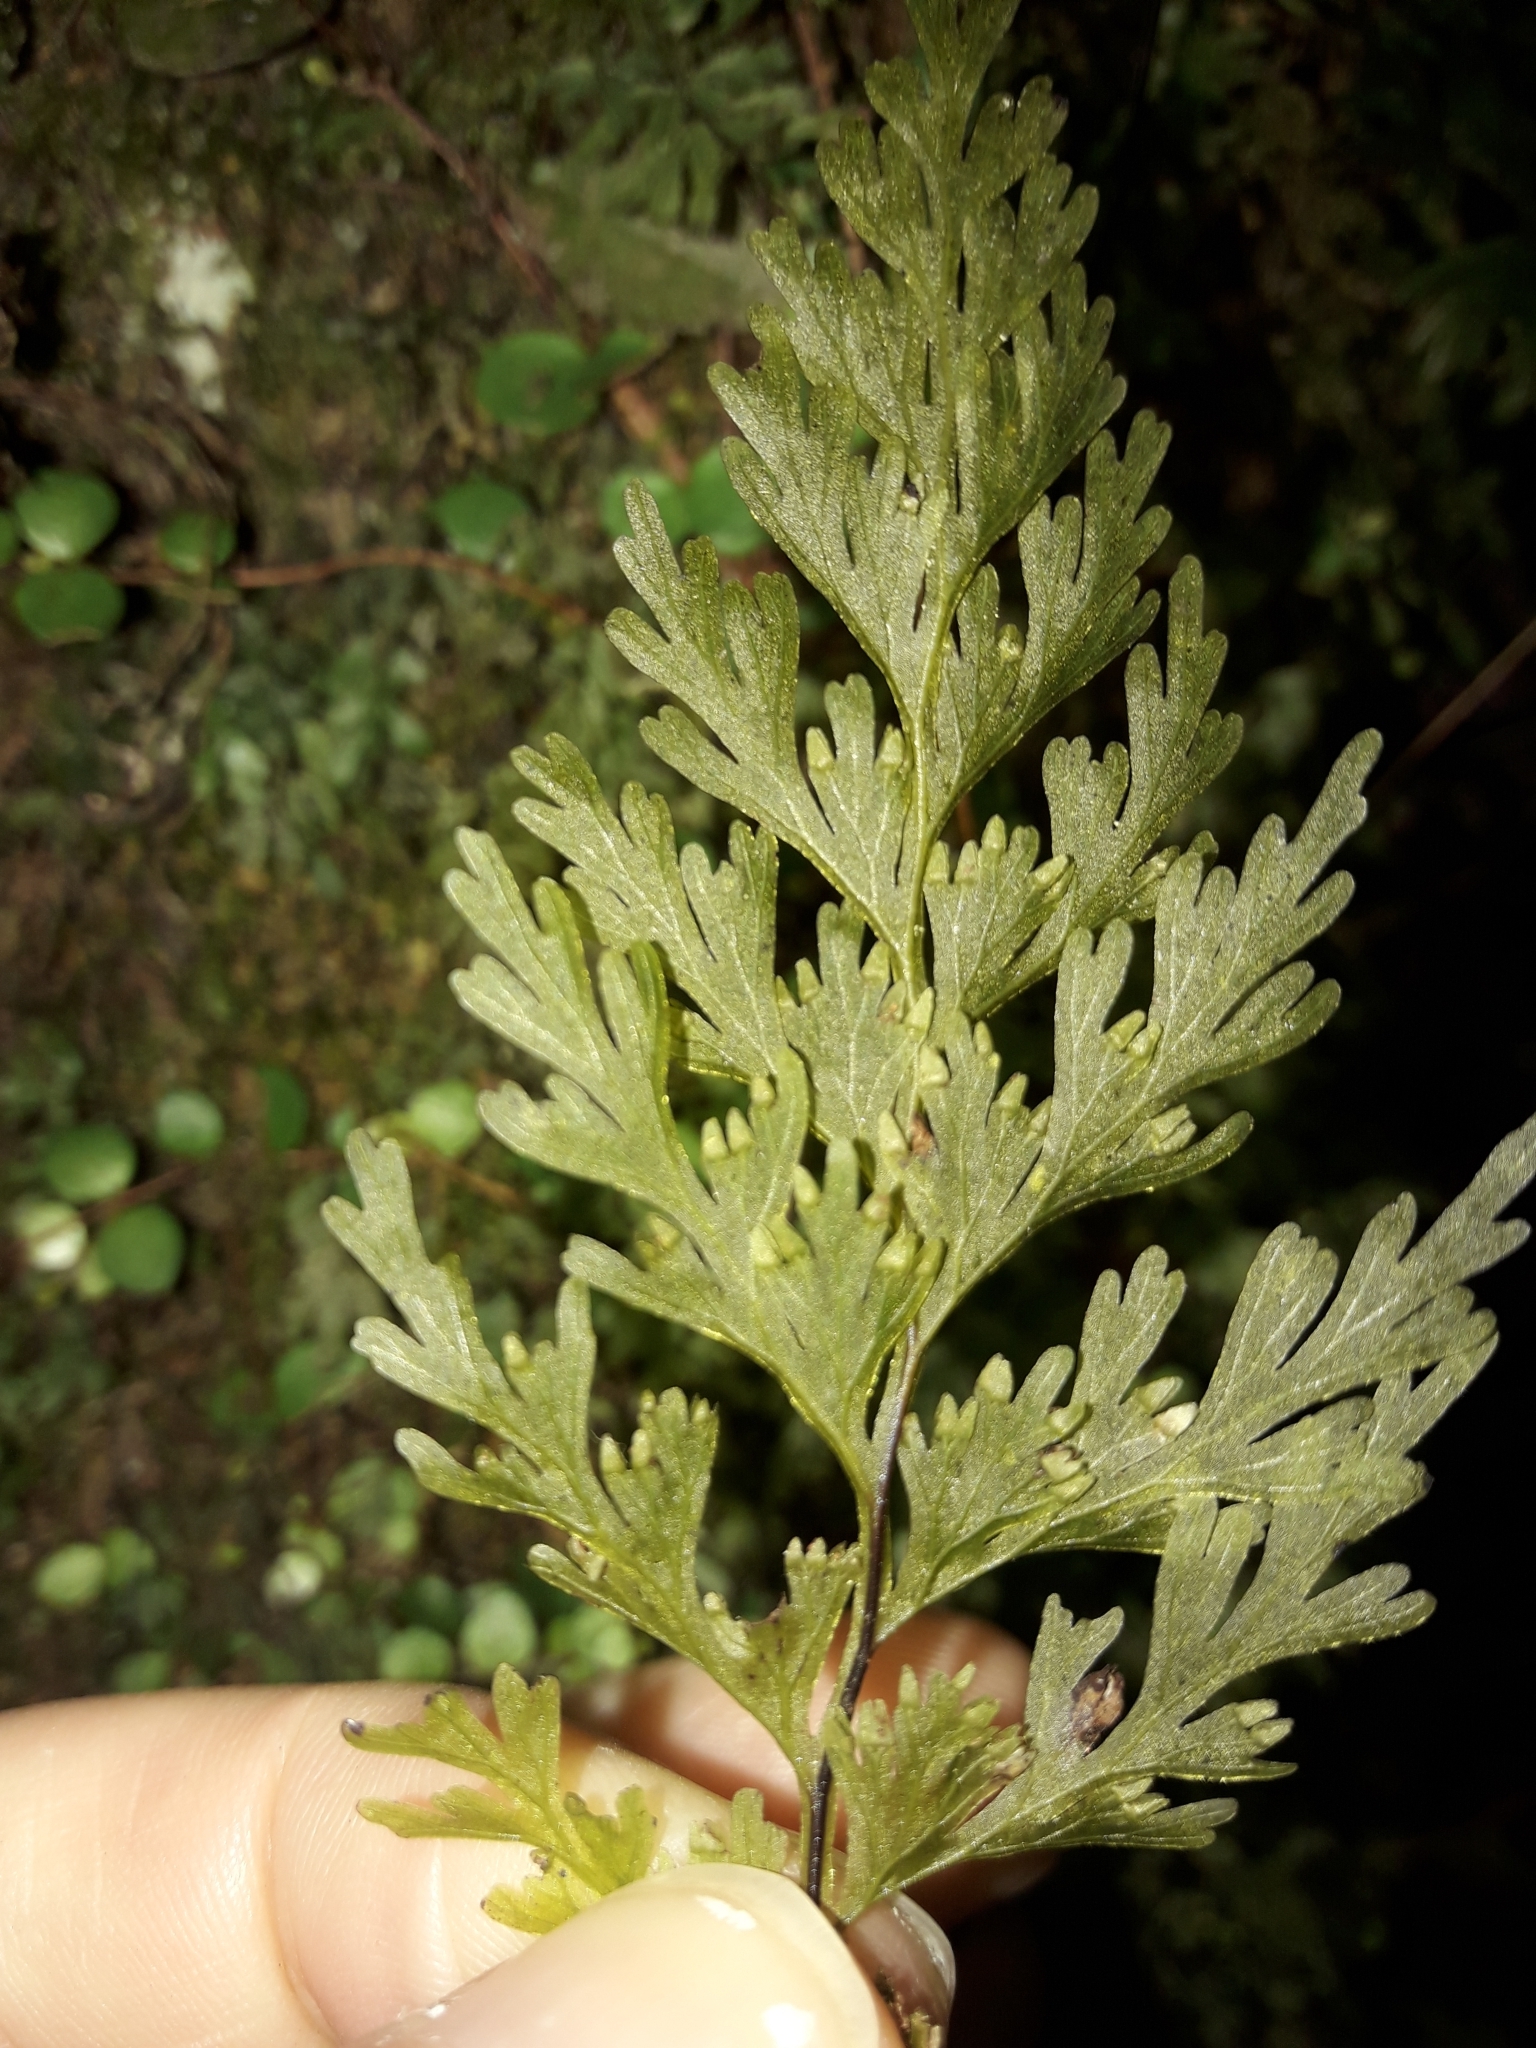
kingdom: Plantae
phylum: Tracheophyta
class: Polypodiopsida
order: Hymenophyllales
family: Hymenophyllaceae
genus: Hymenophyllum
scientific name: Hymenophyllum demissum
